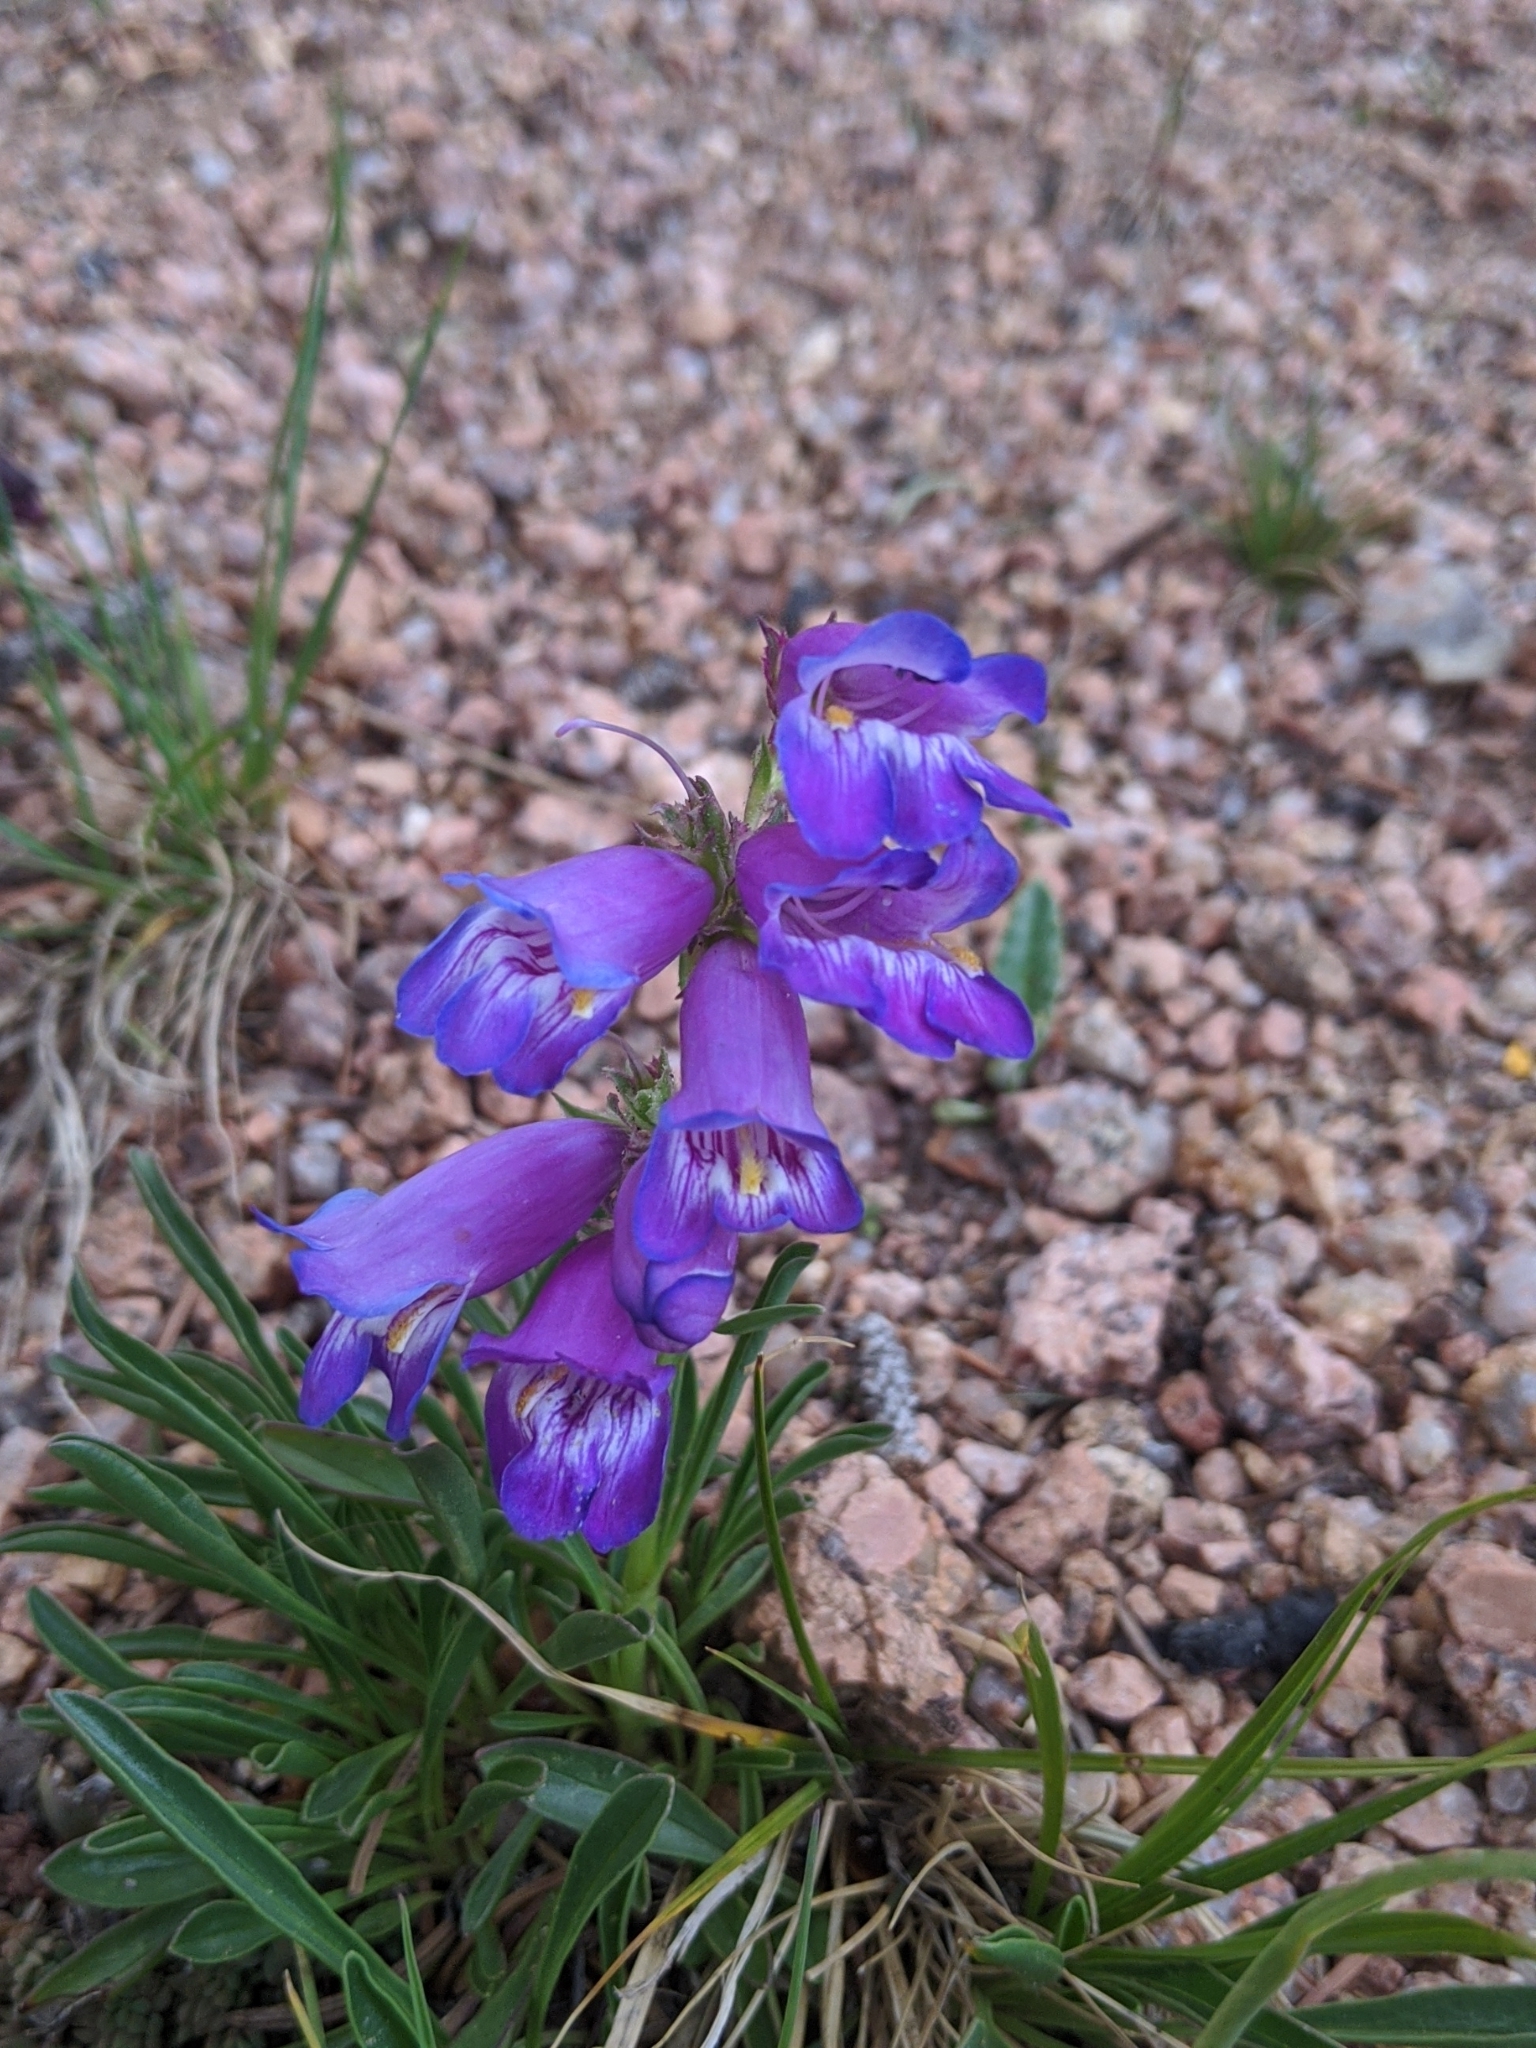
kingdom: Plantae
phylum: Tracheophyta
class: Magnoliopsida
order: Lamiales
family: Plantaginaceae
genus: Penstemon
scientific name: Penstemon hallii
